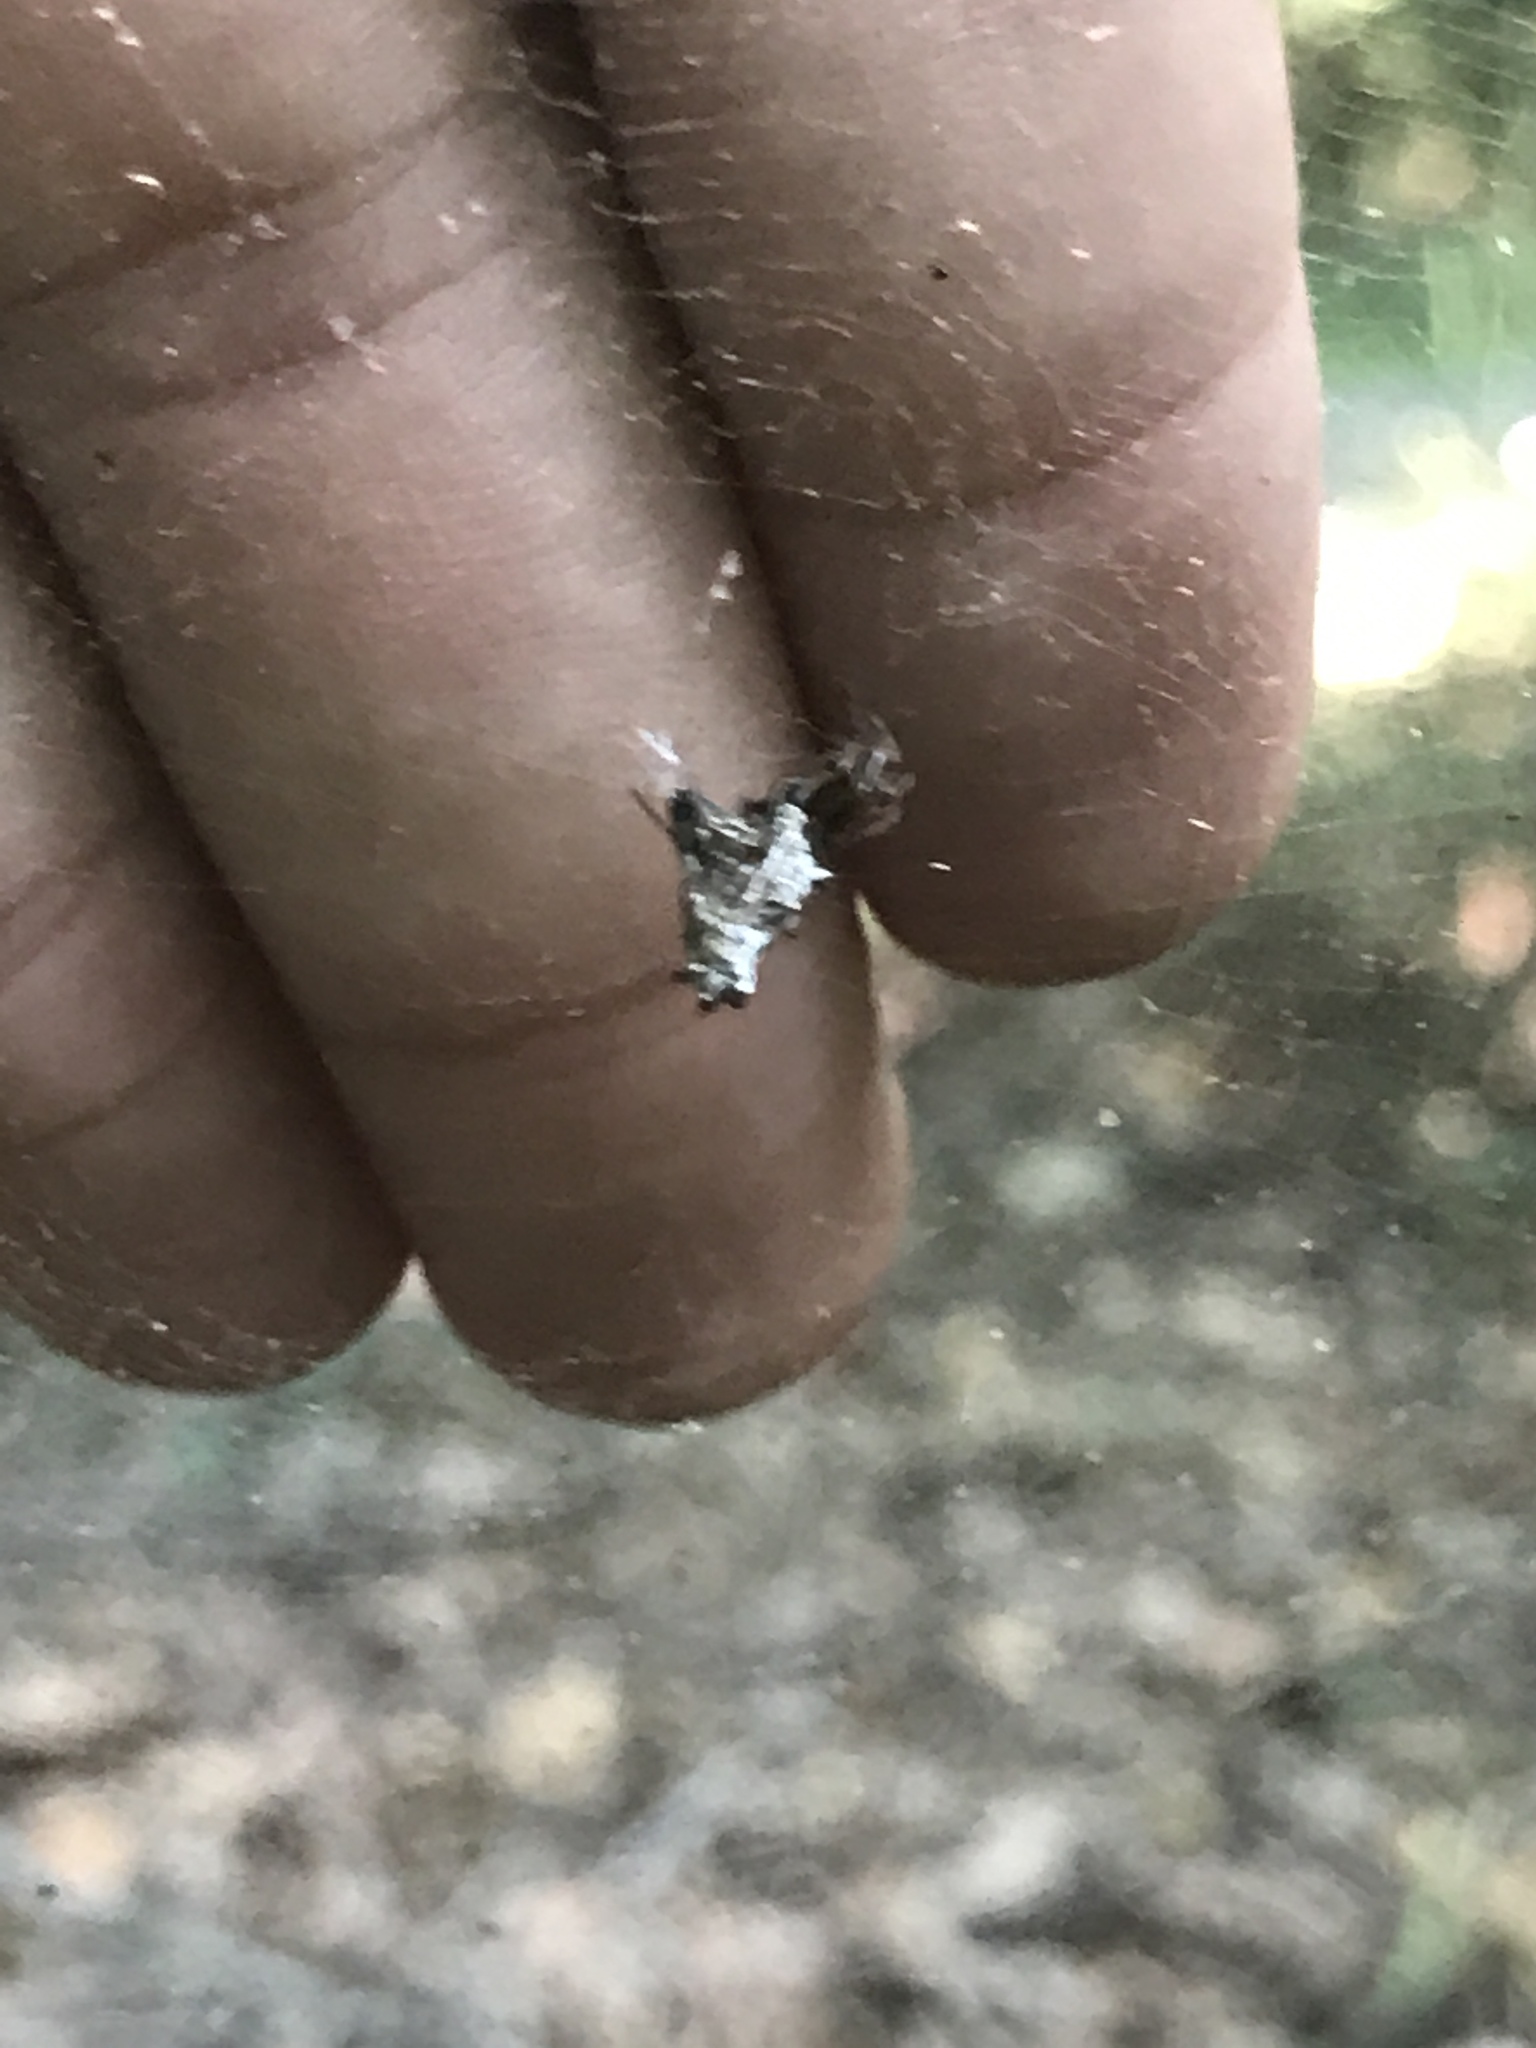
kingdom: Animalia
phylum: Arthropoda
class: Arachnida
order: Araneae
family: Araneidae
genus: Micrathena
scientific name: Micrathena gracilis
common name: Orb weavers
